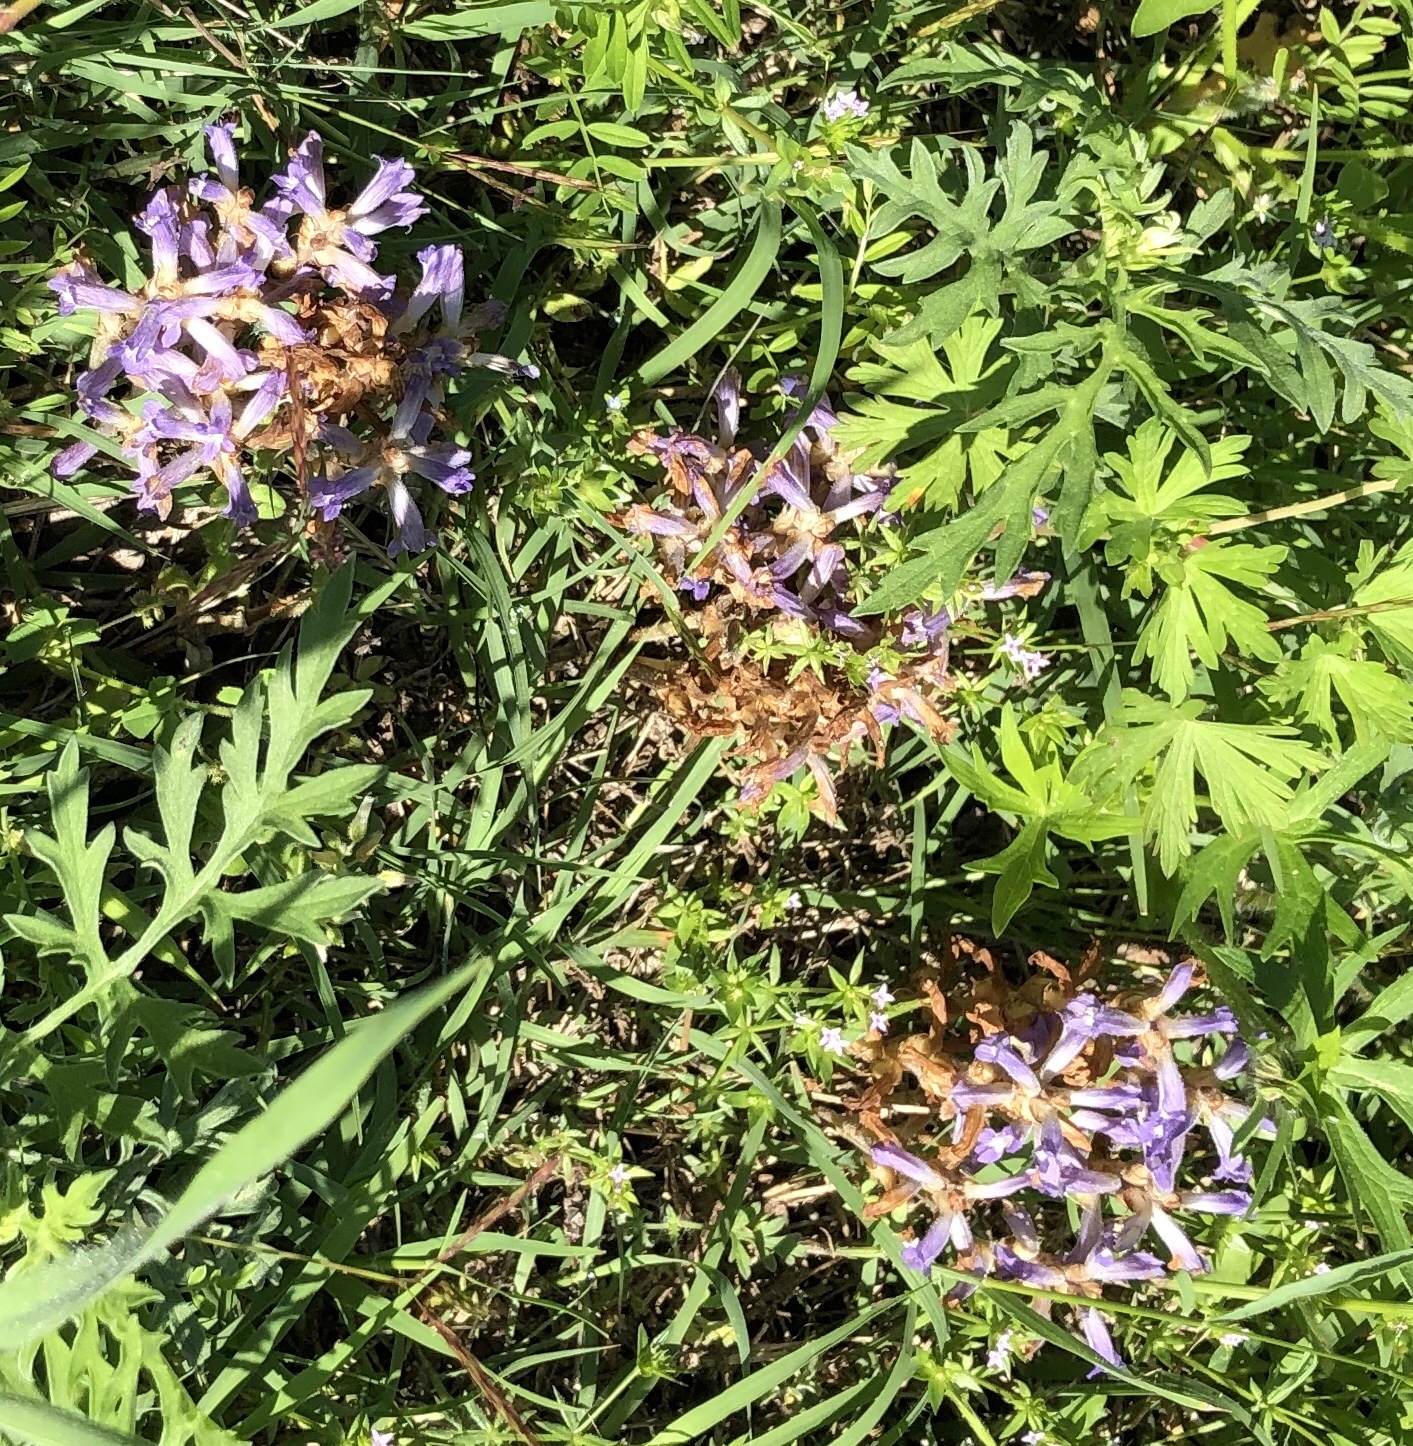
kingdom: Plantae
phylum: Tracheophyta
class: Magnoliopsida
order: Lamiales
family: Verbenaceae
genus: Verbena
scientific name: Verbena bipinnatifida
